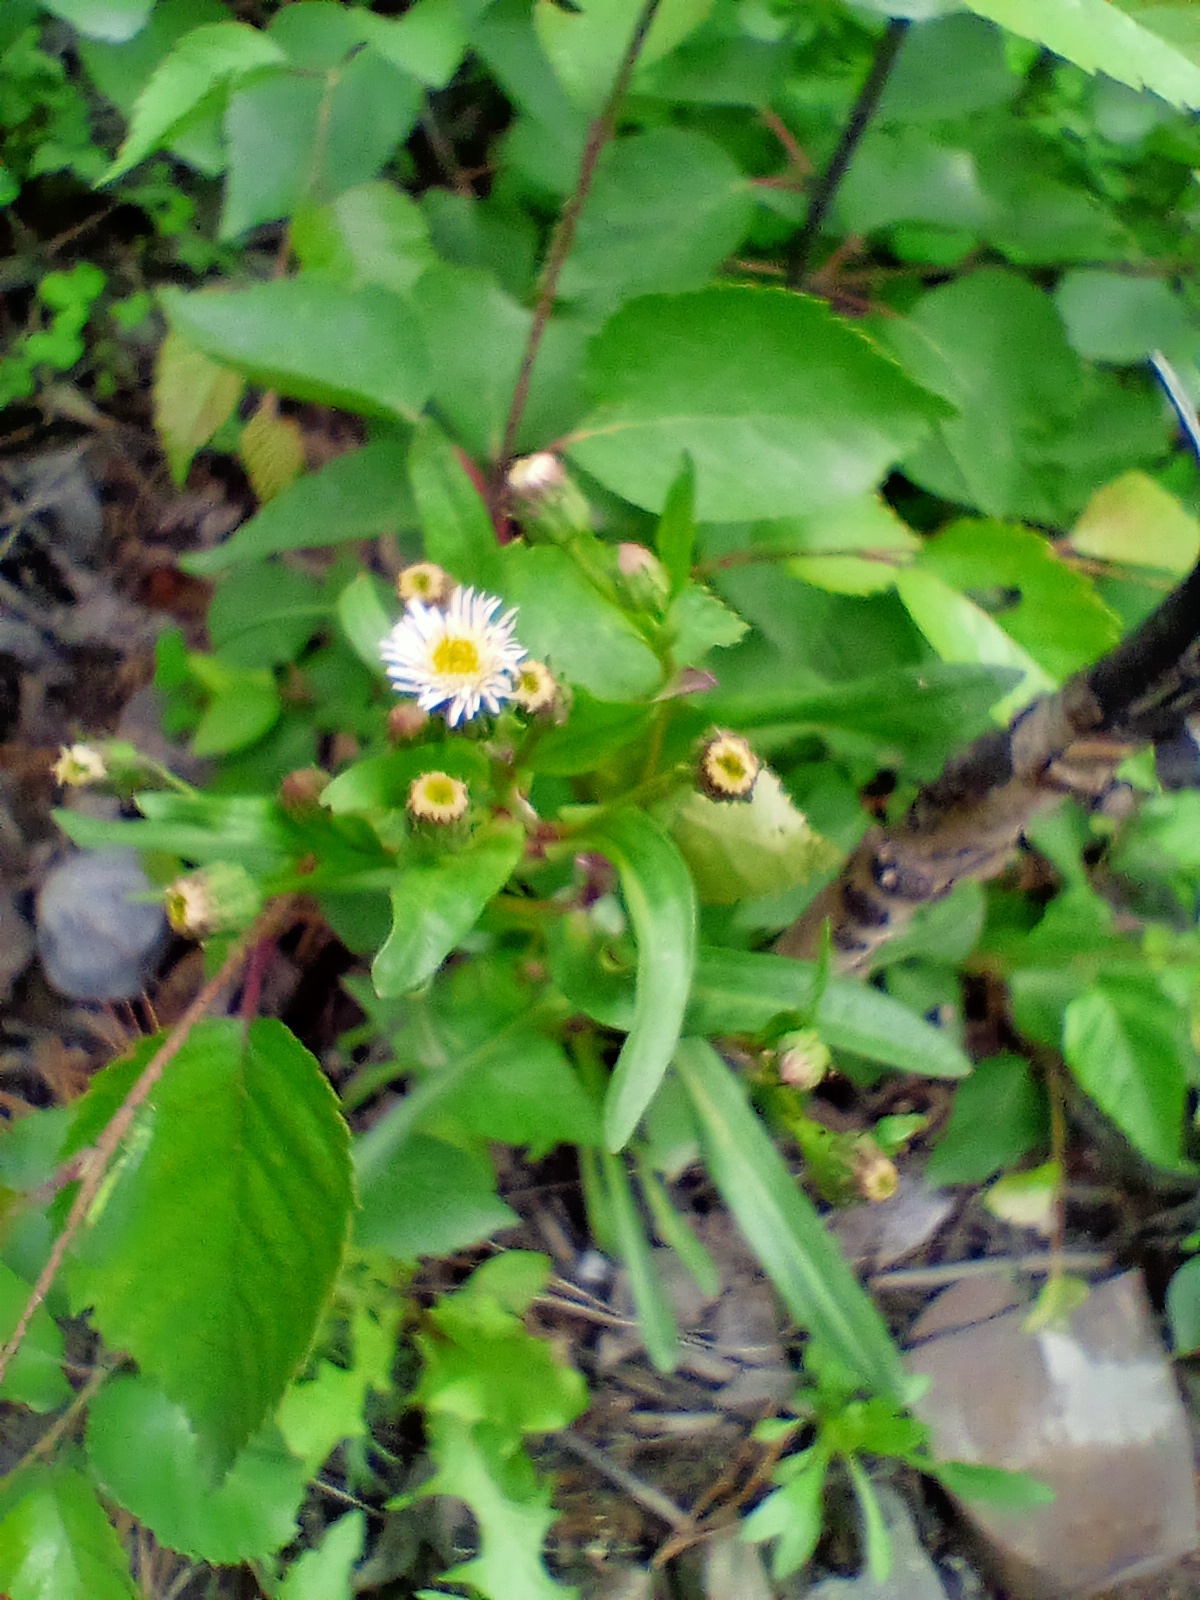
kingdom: Plantae
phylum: Tracheophyta
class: Magnoliopsida
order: Asterales
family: Asteraceae
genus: Erigeron
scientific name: Erigeron acris
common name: Blue fleabane
